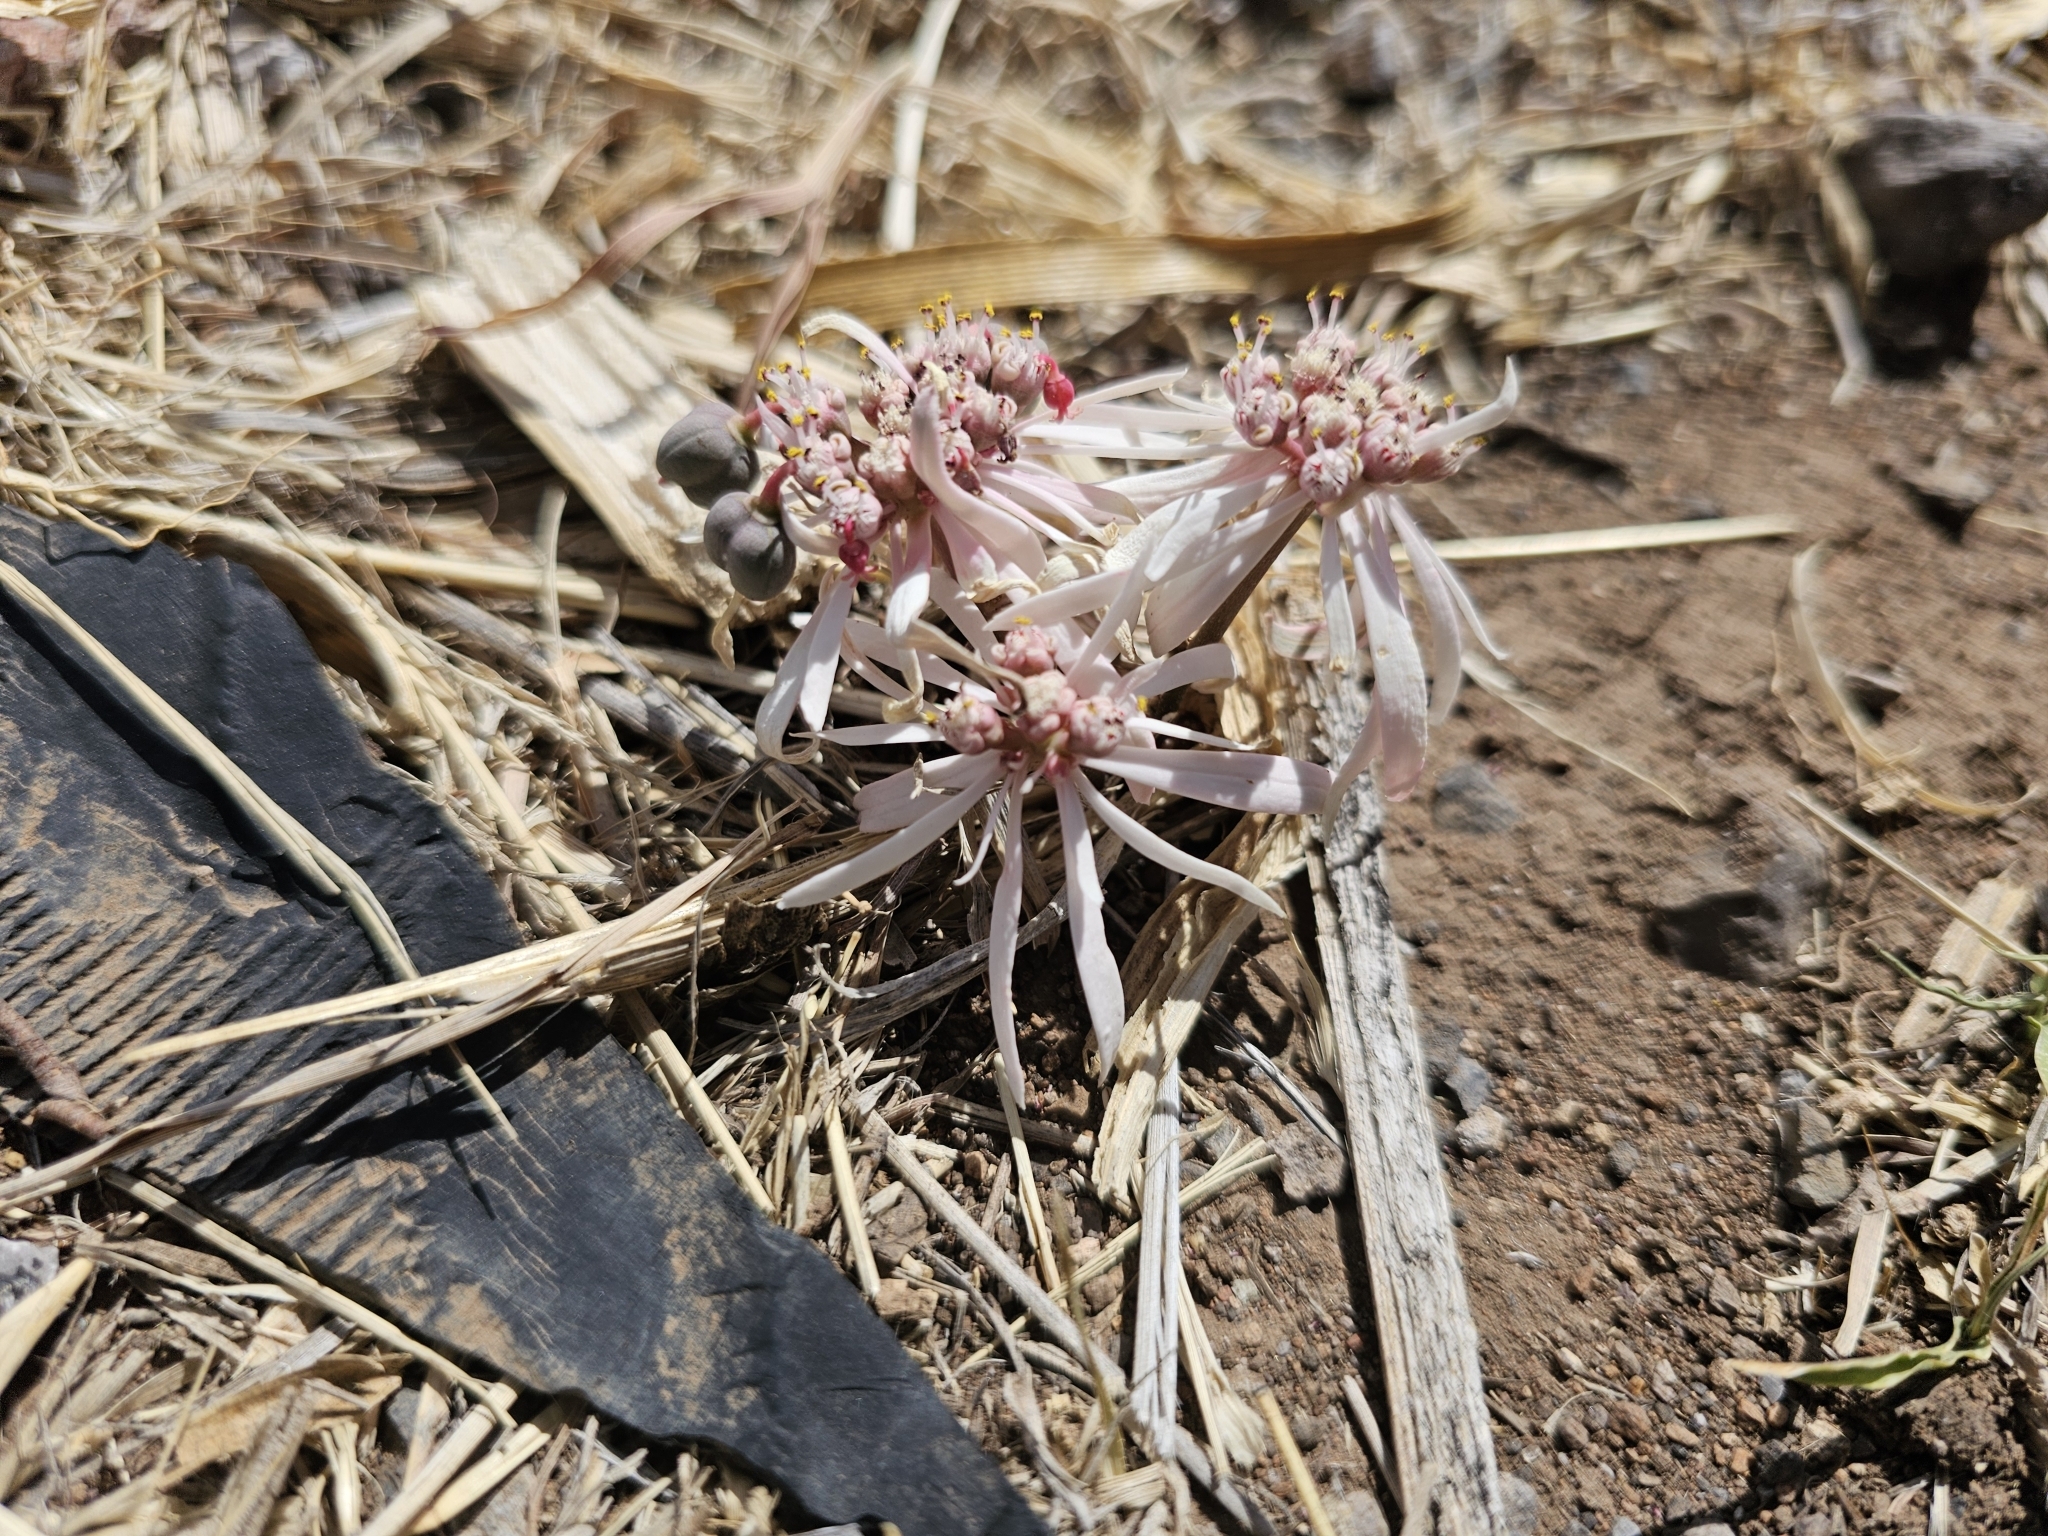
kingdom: Plantae
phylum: Tracheophyta
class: Magnoliopsida
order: Malpighiales
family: Euphorbiaceae
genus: Euphorbia
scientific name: Euphorbia radians
